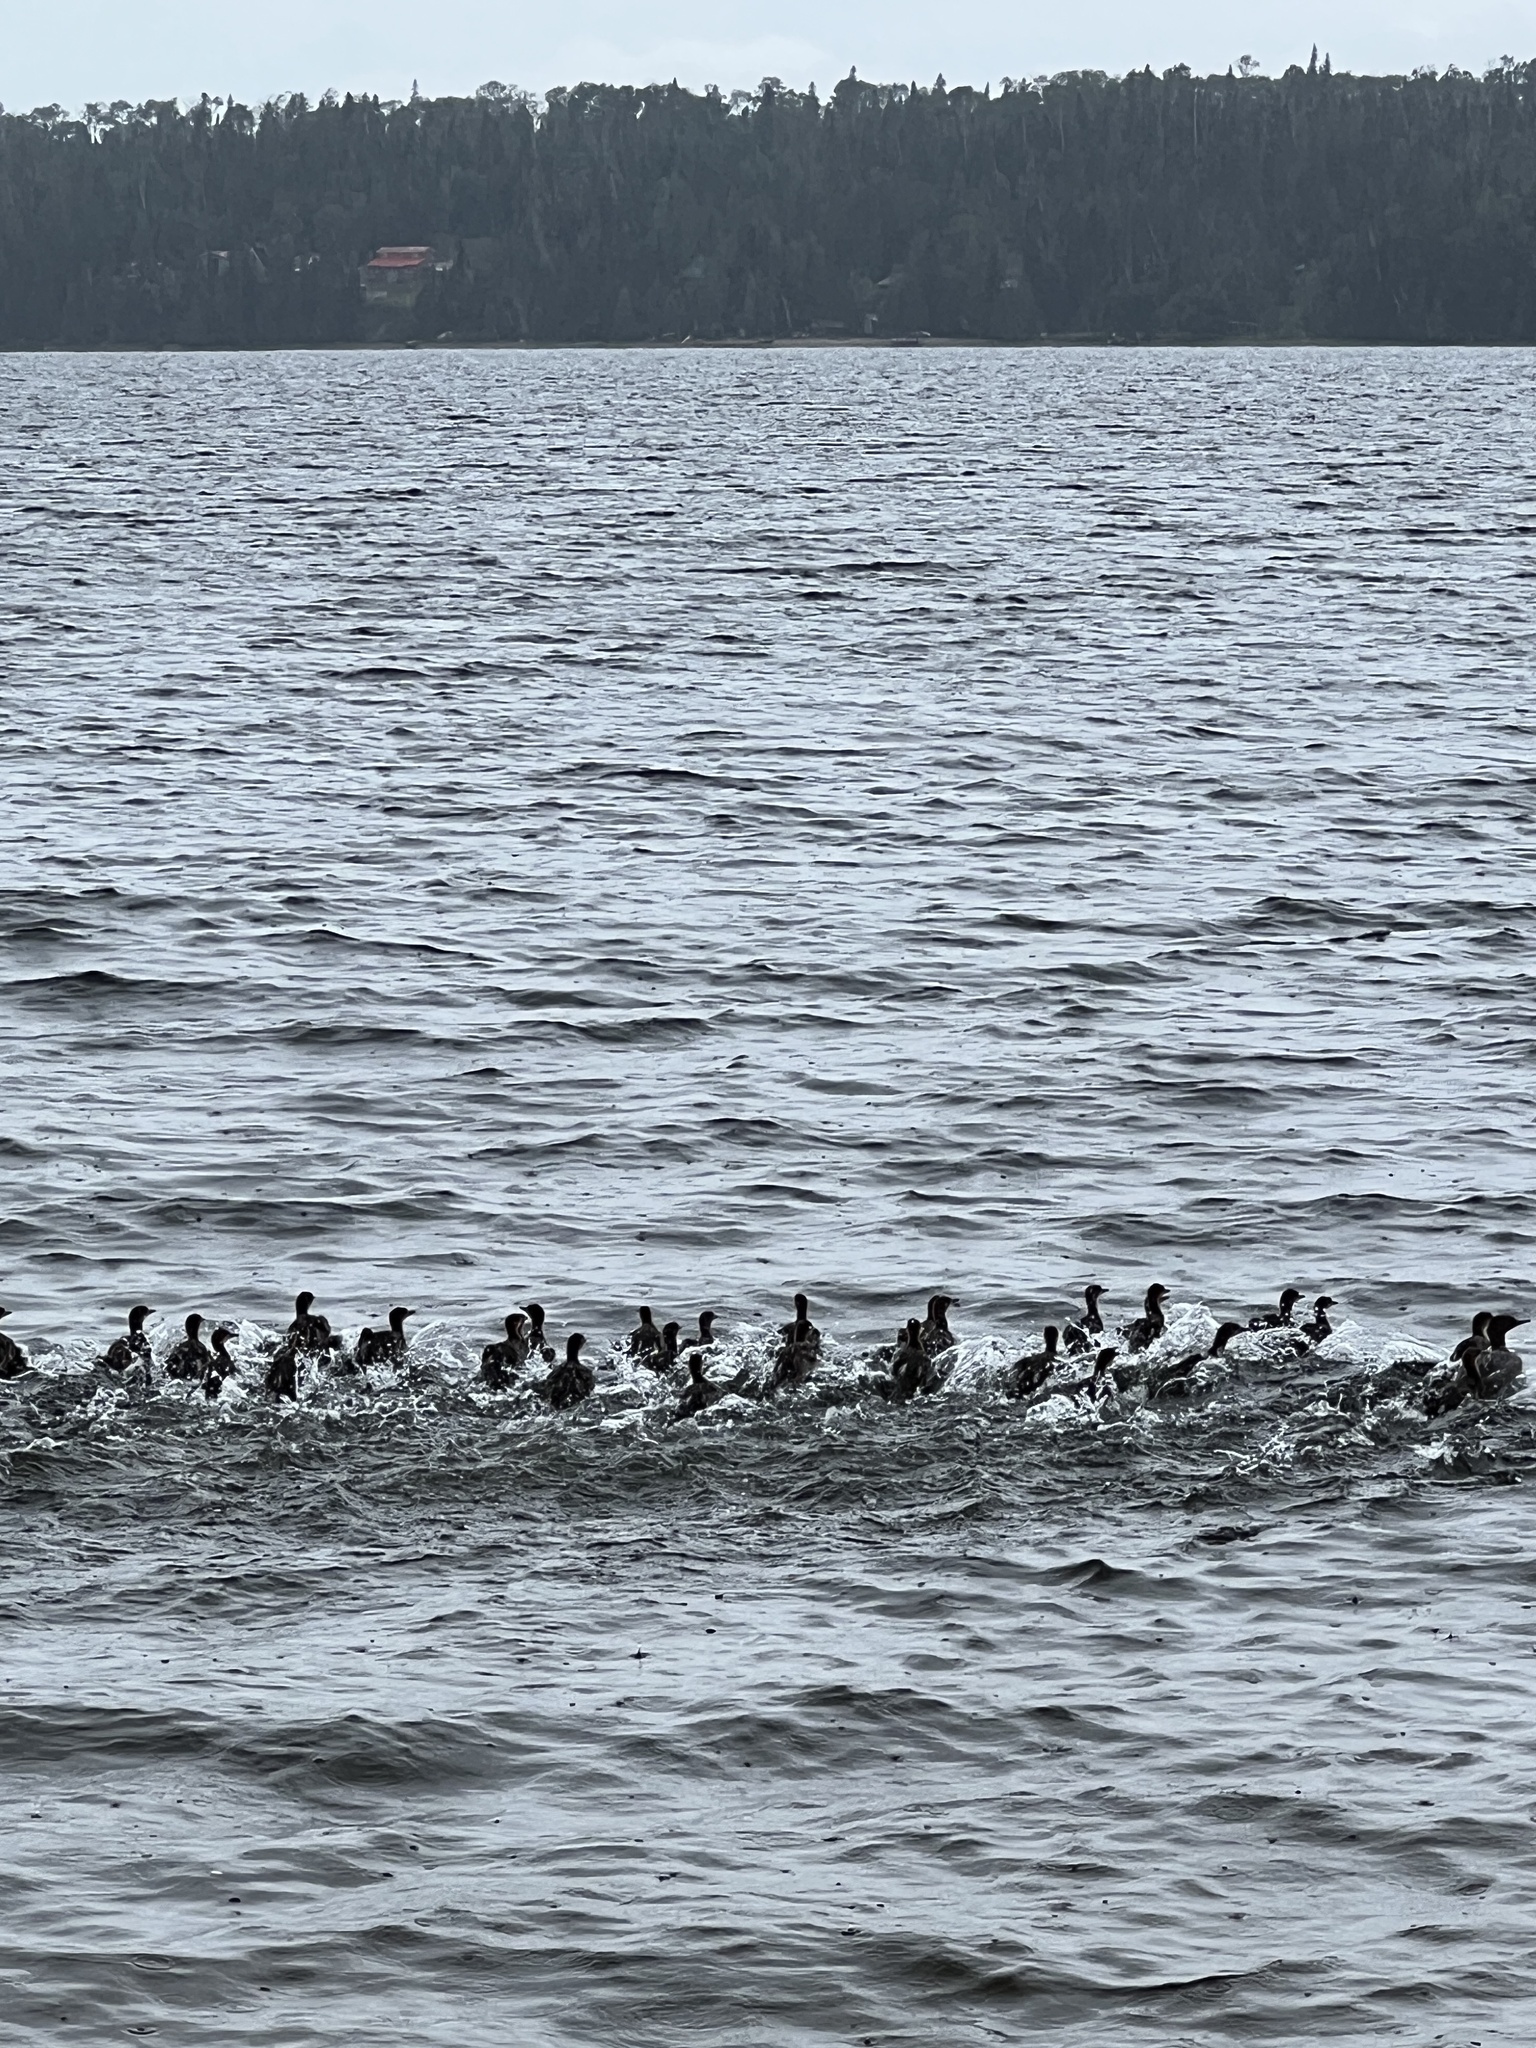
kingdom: Animalia
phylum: Chordata
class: Aves
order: Anseriformes
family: Anatidae
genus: Mergus
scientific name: Mergus merganser
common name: Common merganser
